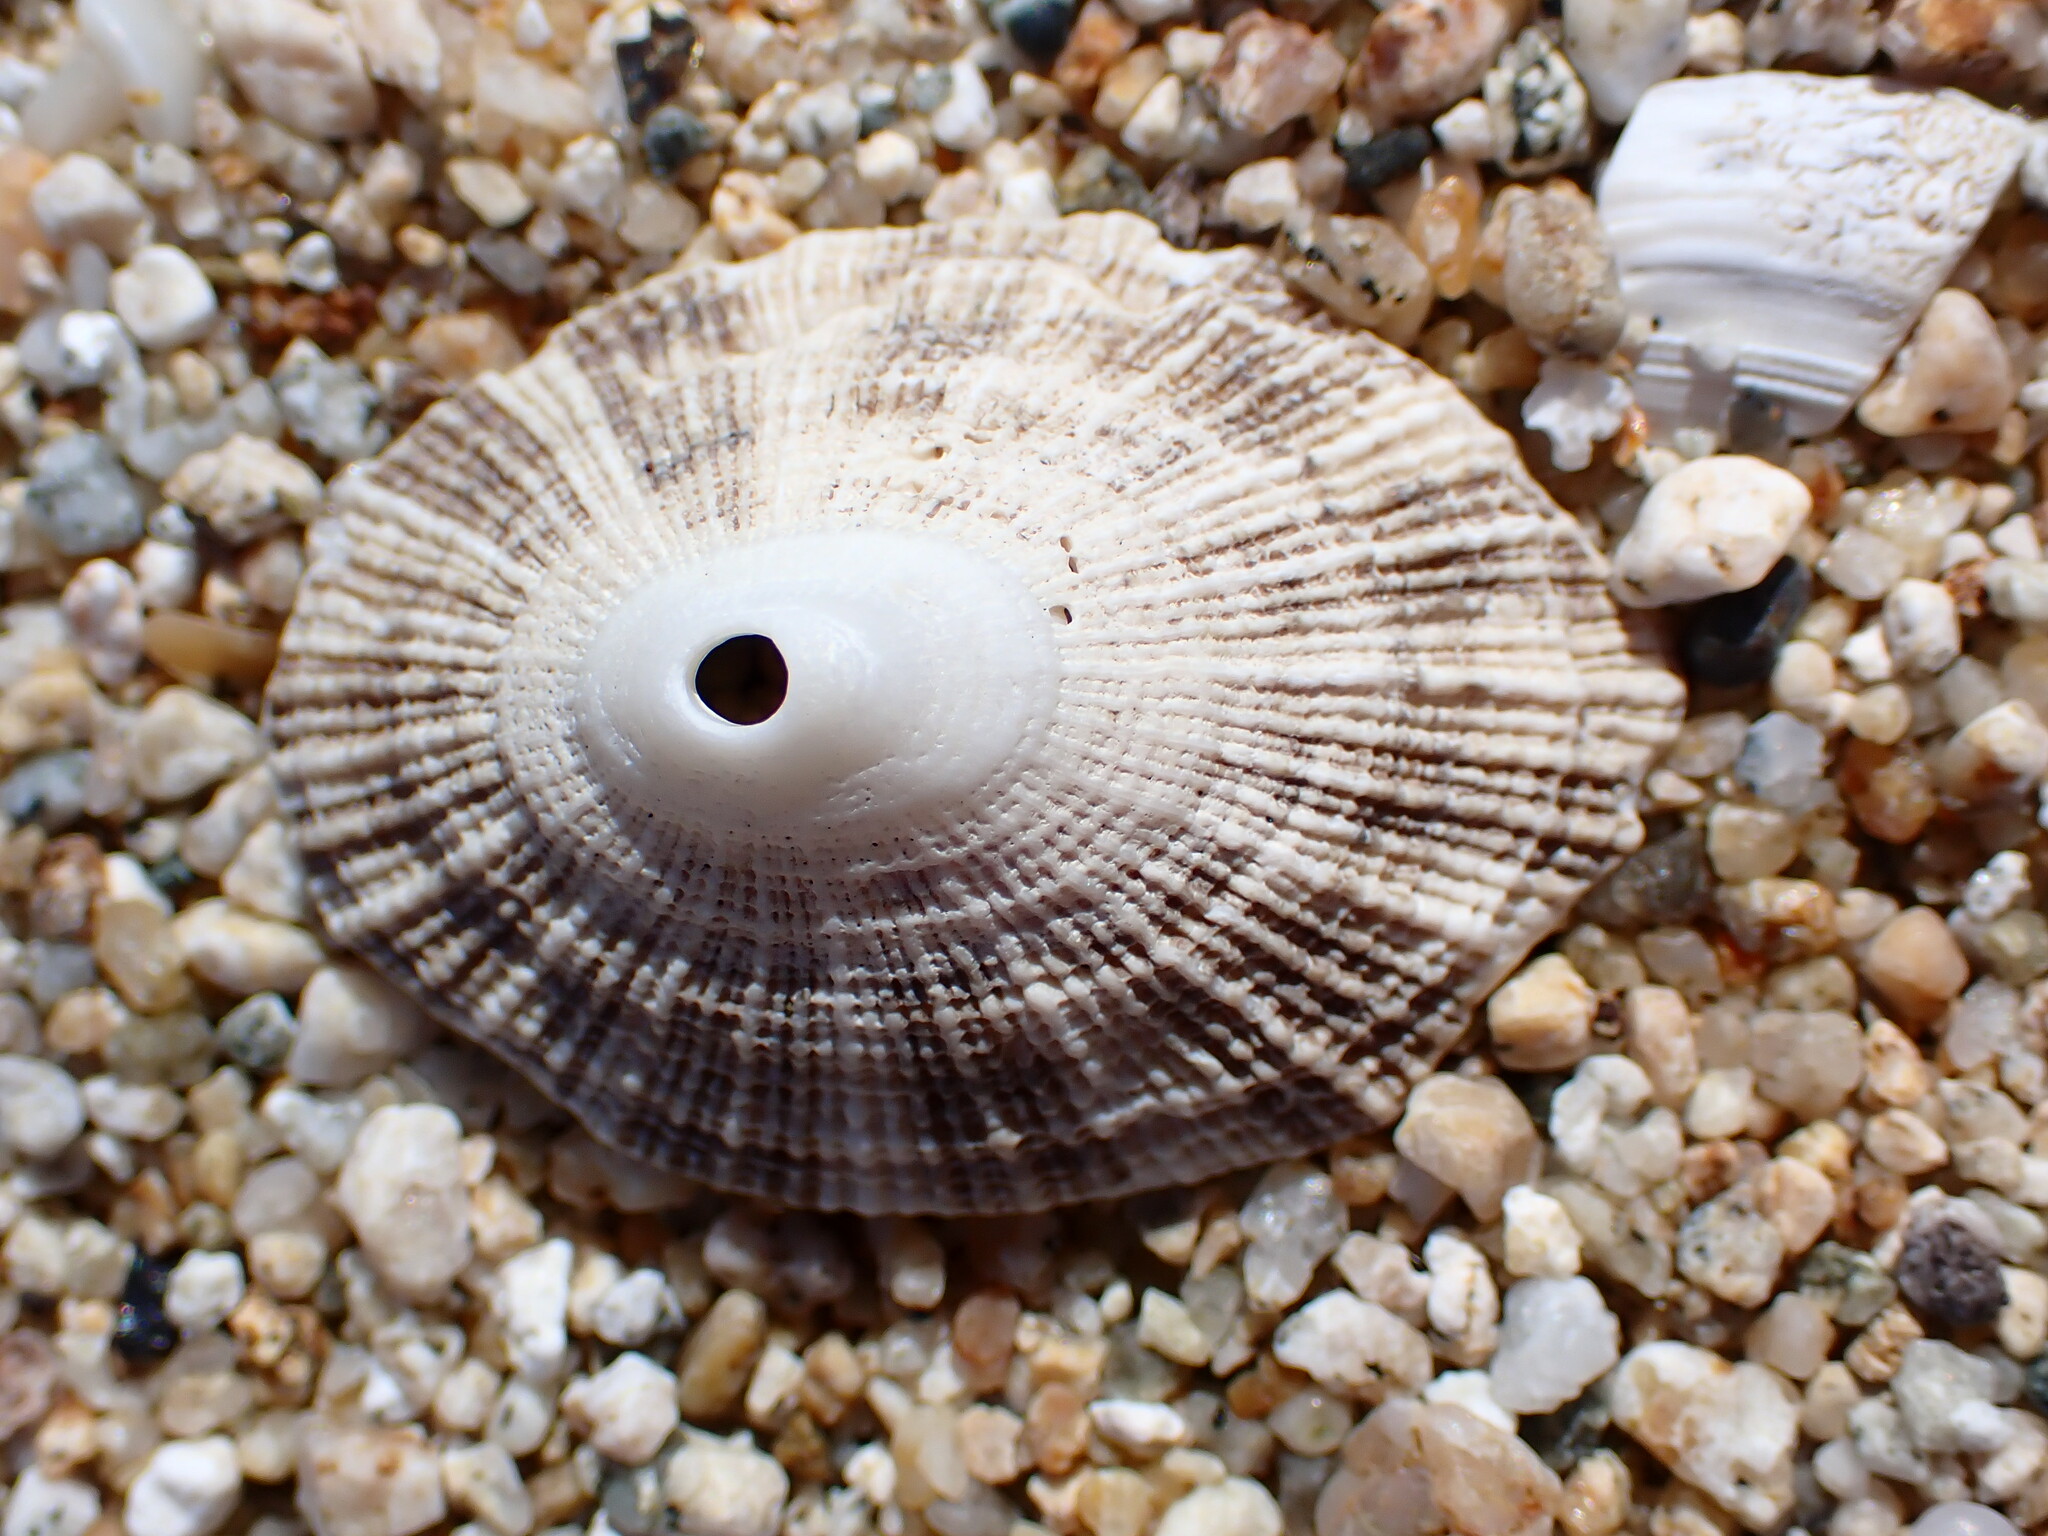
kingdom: Animalia
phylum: Mollusca
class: Gastropoda
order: Lepetellida
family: Fissurellidae
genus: Diodora
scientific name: Diodora aspera
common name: Rough keyhole limpet
